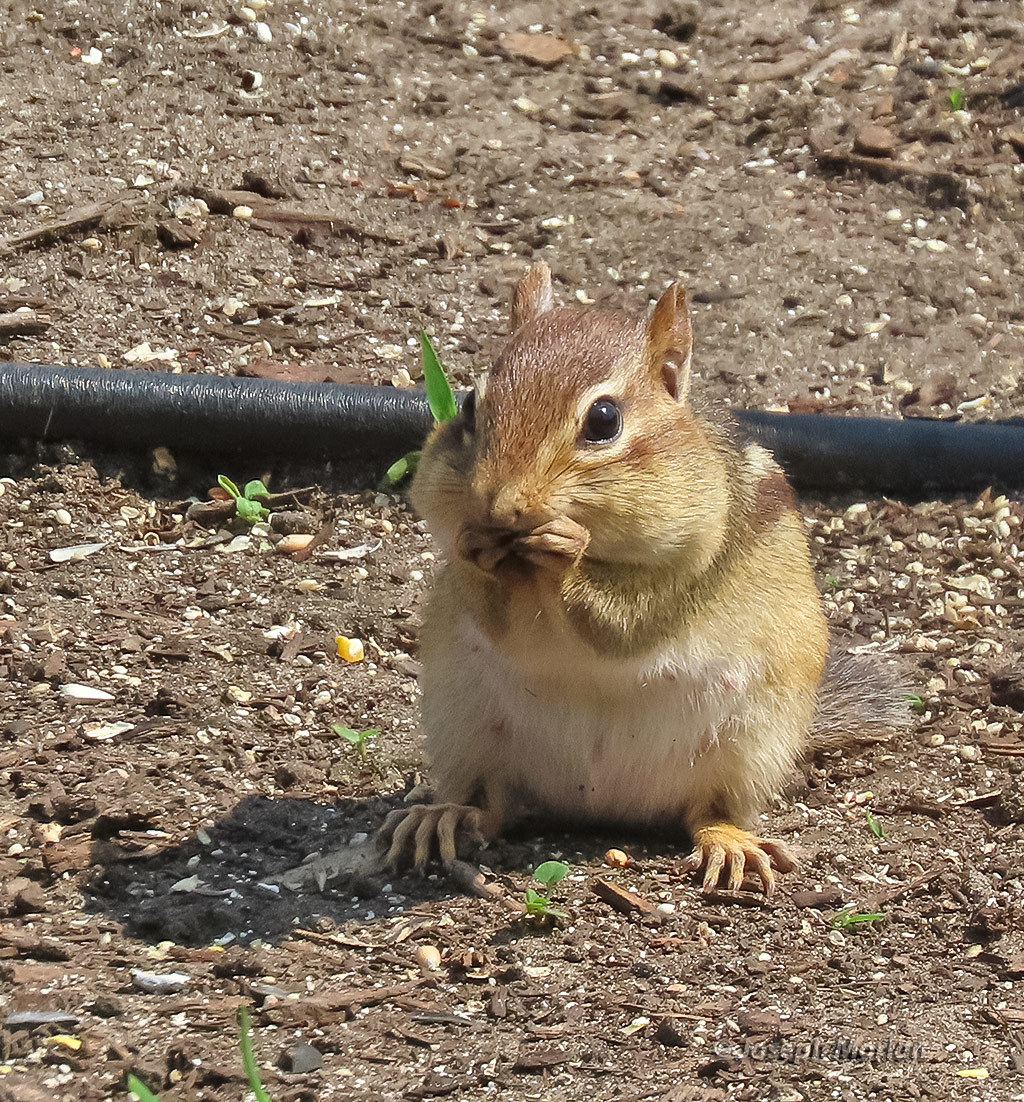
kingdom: Animalia
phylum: Chordata
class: Mammalia
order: Rodentia
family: Sciuridae
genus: Tamias
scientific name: Tamias striatus
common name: Eastern chipmunk
